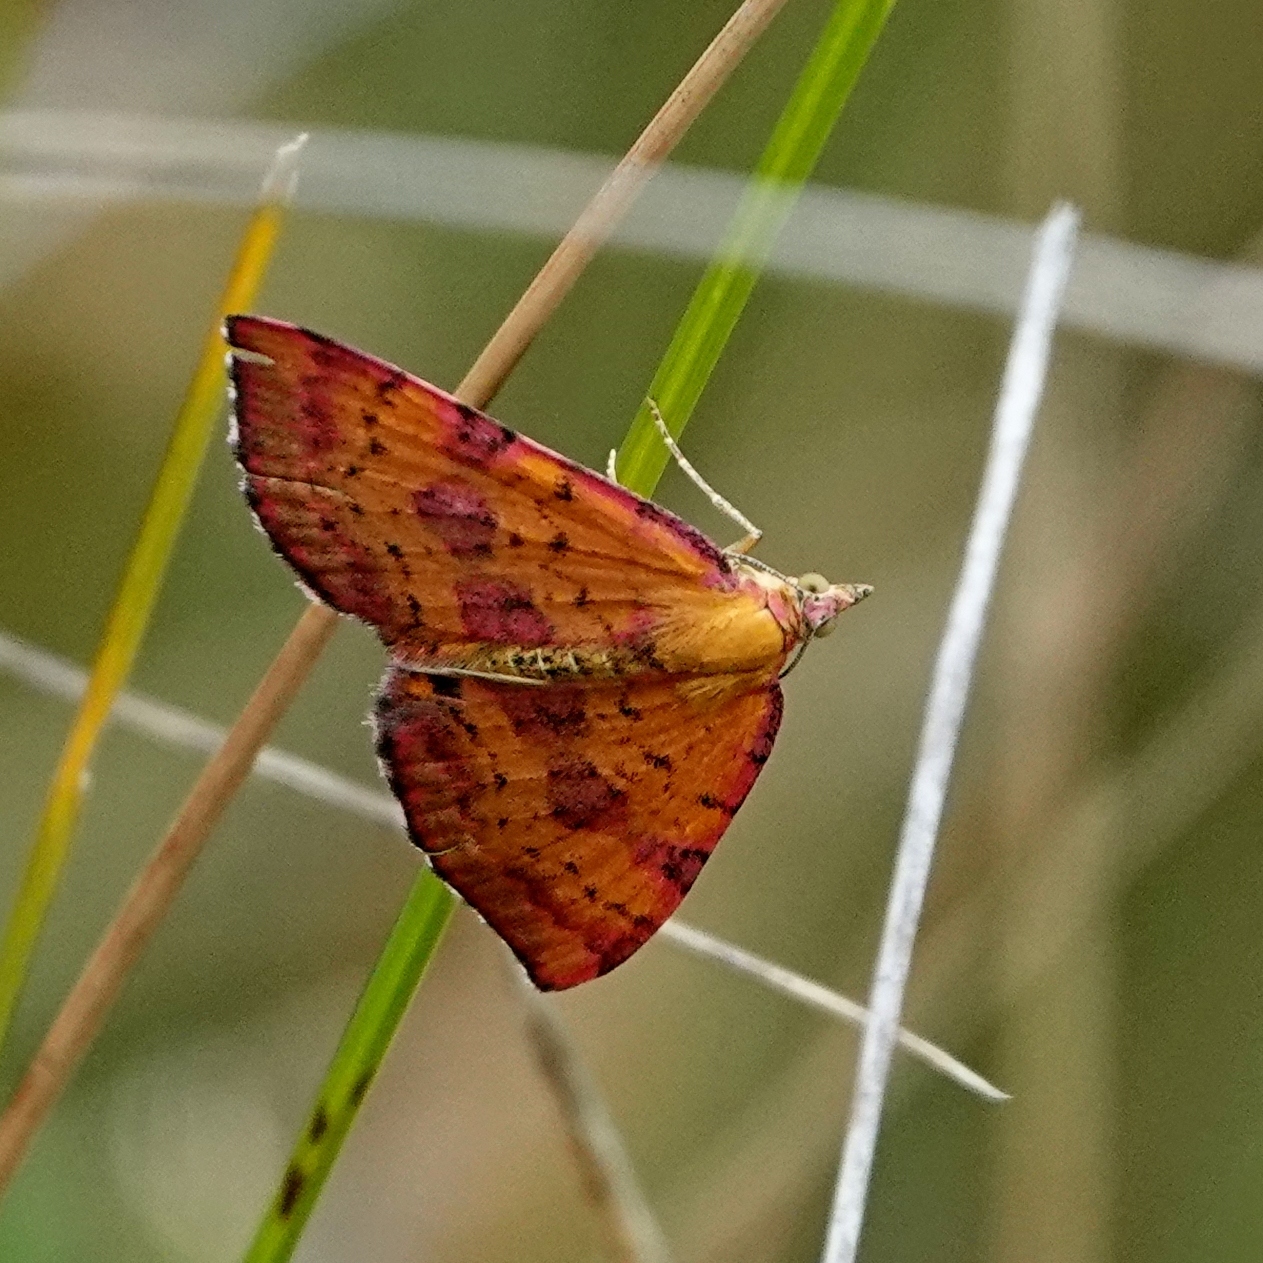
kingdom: Animalia
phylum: Arthropoda
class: Insecta
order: Lepidoptera
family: Geometridae
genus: Chrysolarentia
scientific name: Chrysolarentia perornata
